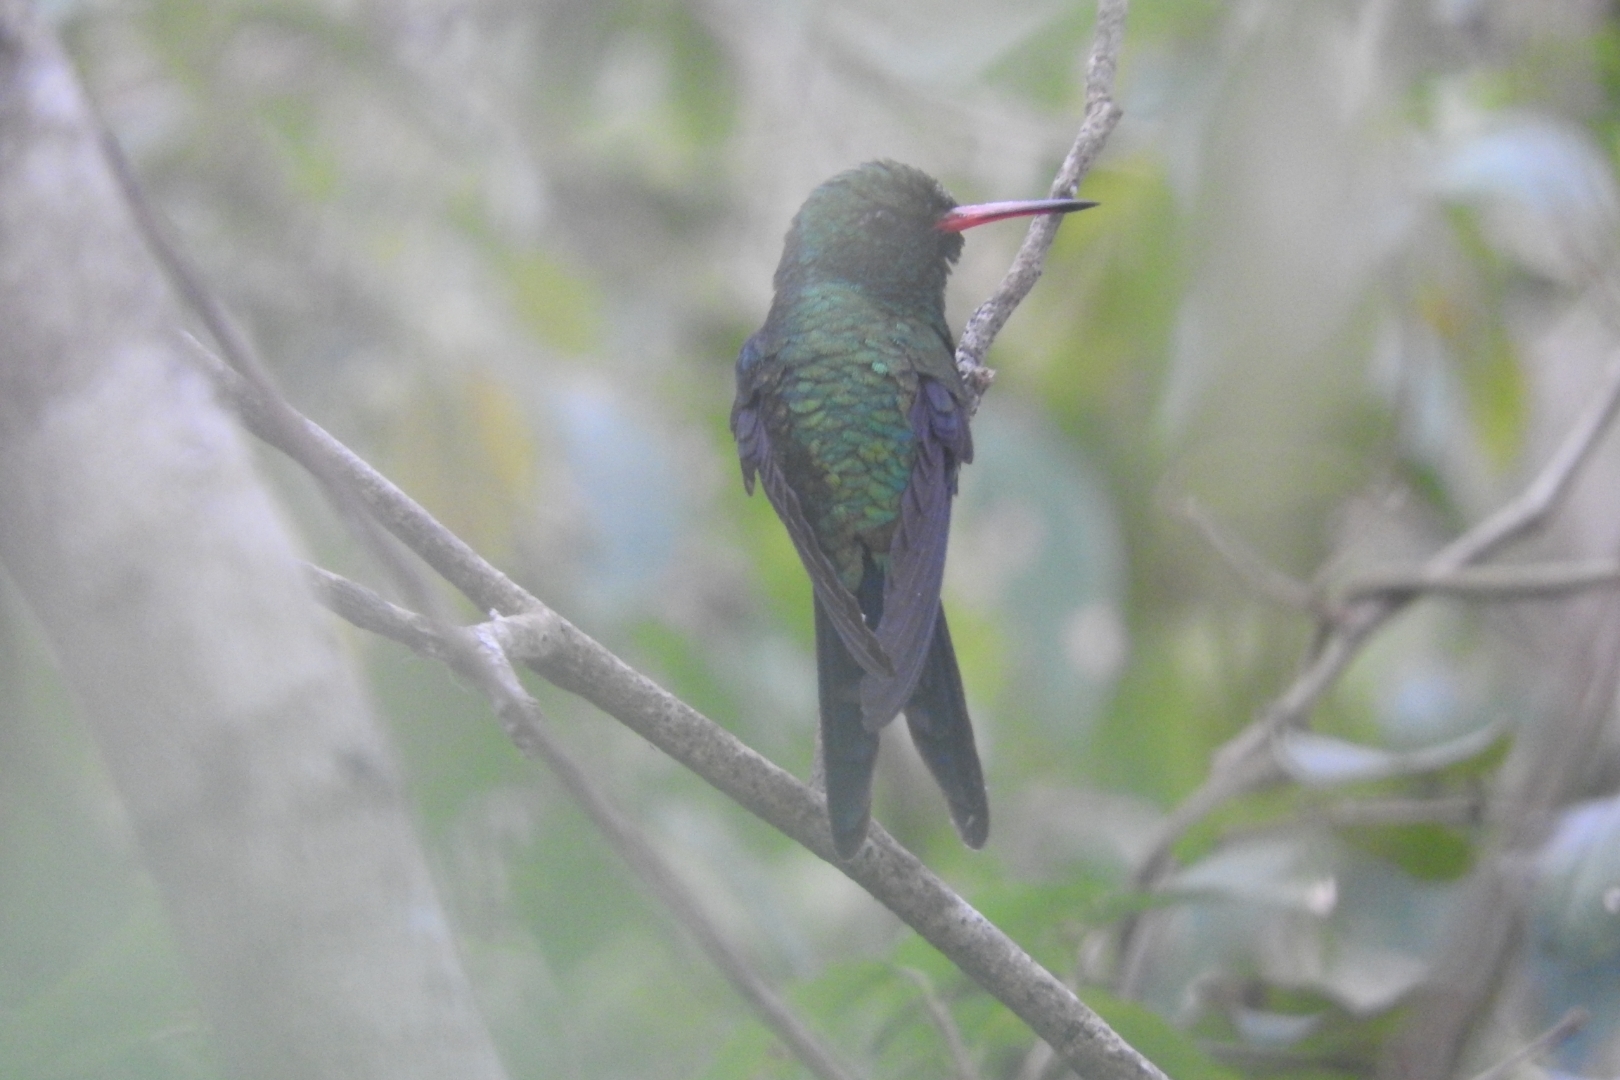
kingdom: Animalia
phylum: Chordata
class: Aves
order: Apodiformes
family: Trochilidae
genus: Cynanthus
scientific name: Cynanthus canivetii
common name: Canivet's emerald
